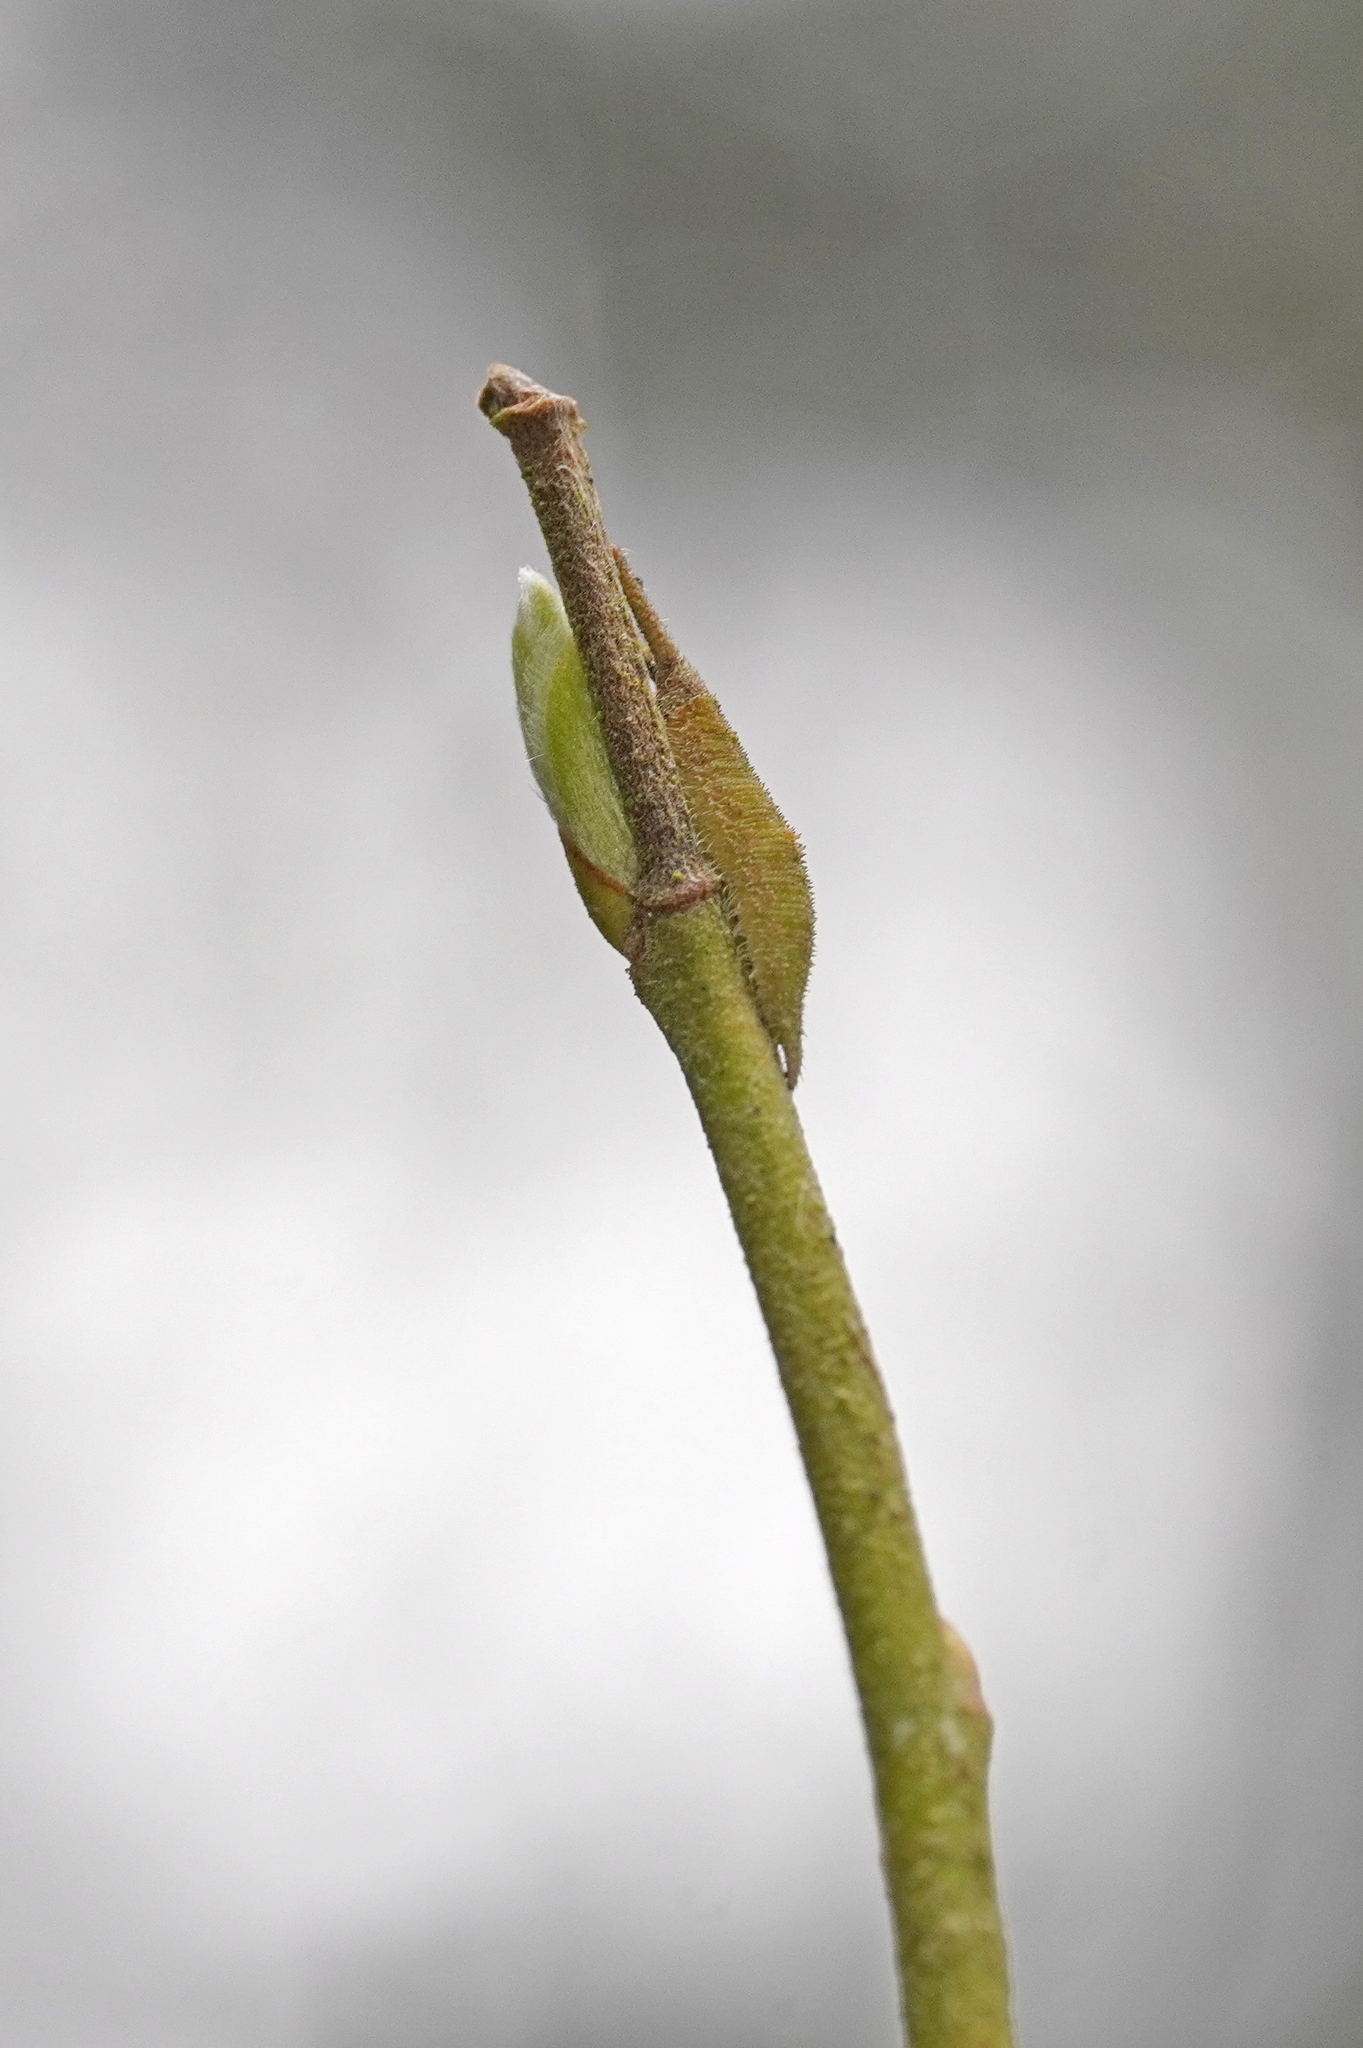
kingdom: Animalia
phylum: Arthropoda
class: Insecta
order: Lepidoptera
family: Nymphalidae
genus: Apatura
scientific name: Apatura iris
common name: Purple emperor
